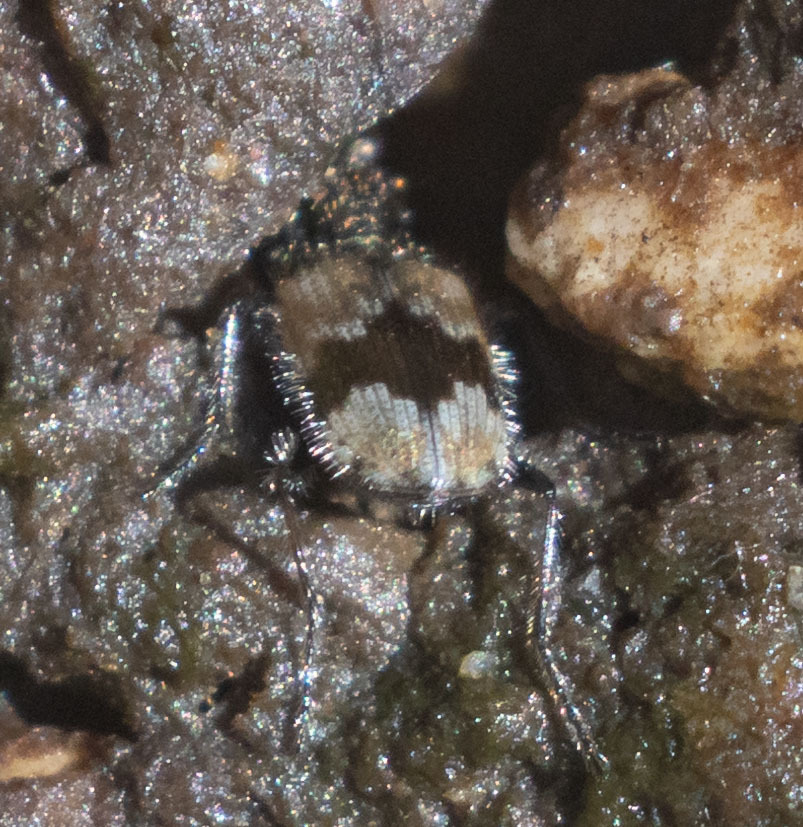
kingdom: Animalia
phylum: Arthropoda
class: Insecta
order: Coleoptera
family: Carabidae
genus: Lachnophorus
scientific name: Lachnophorus elegantulus
